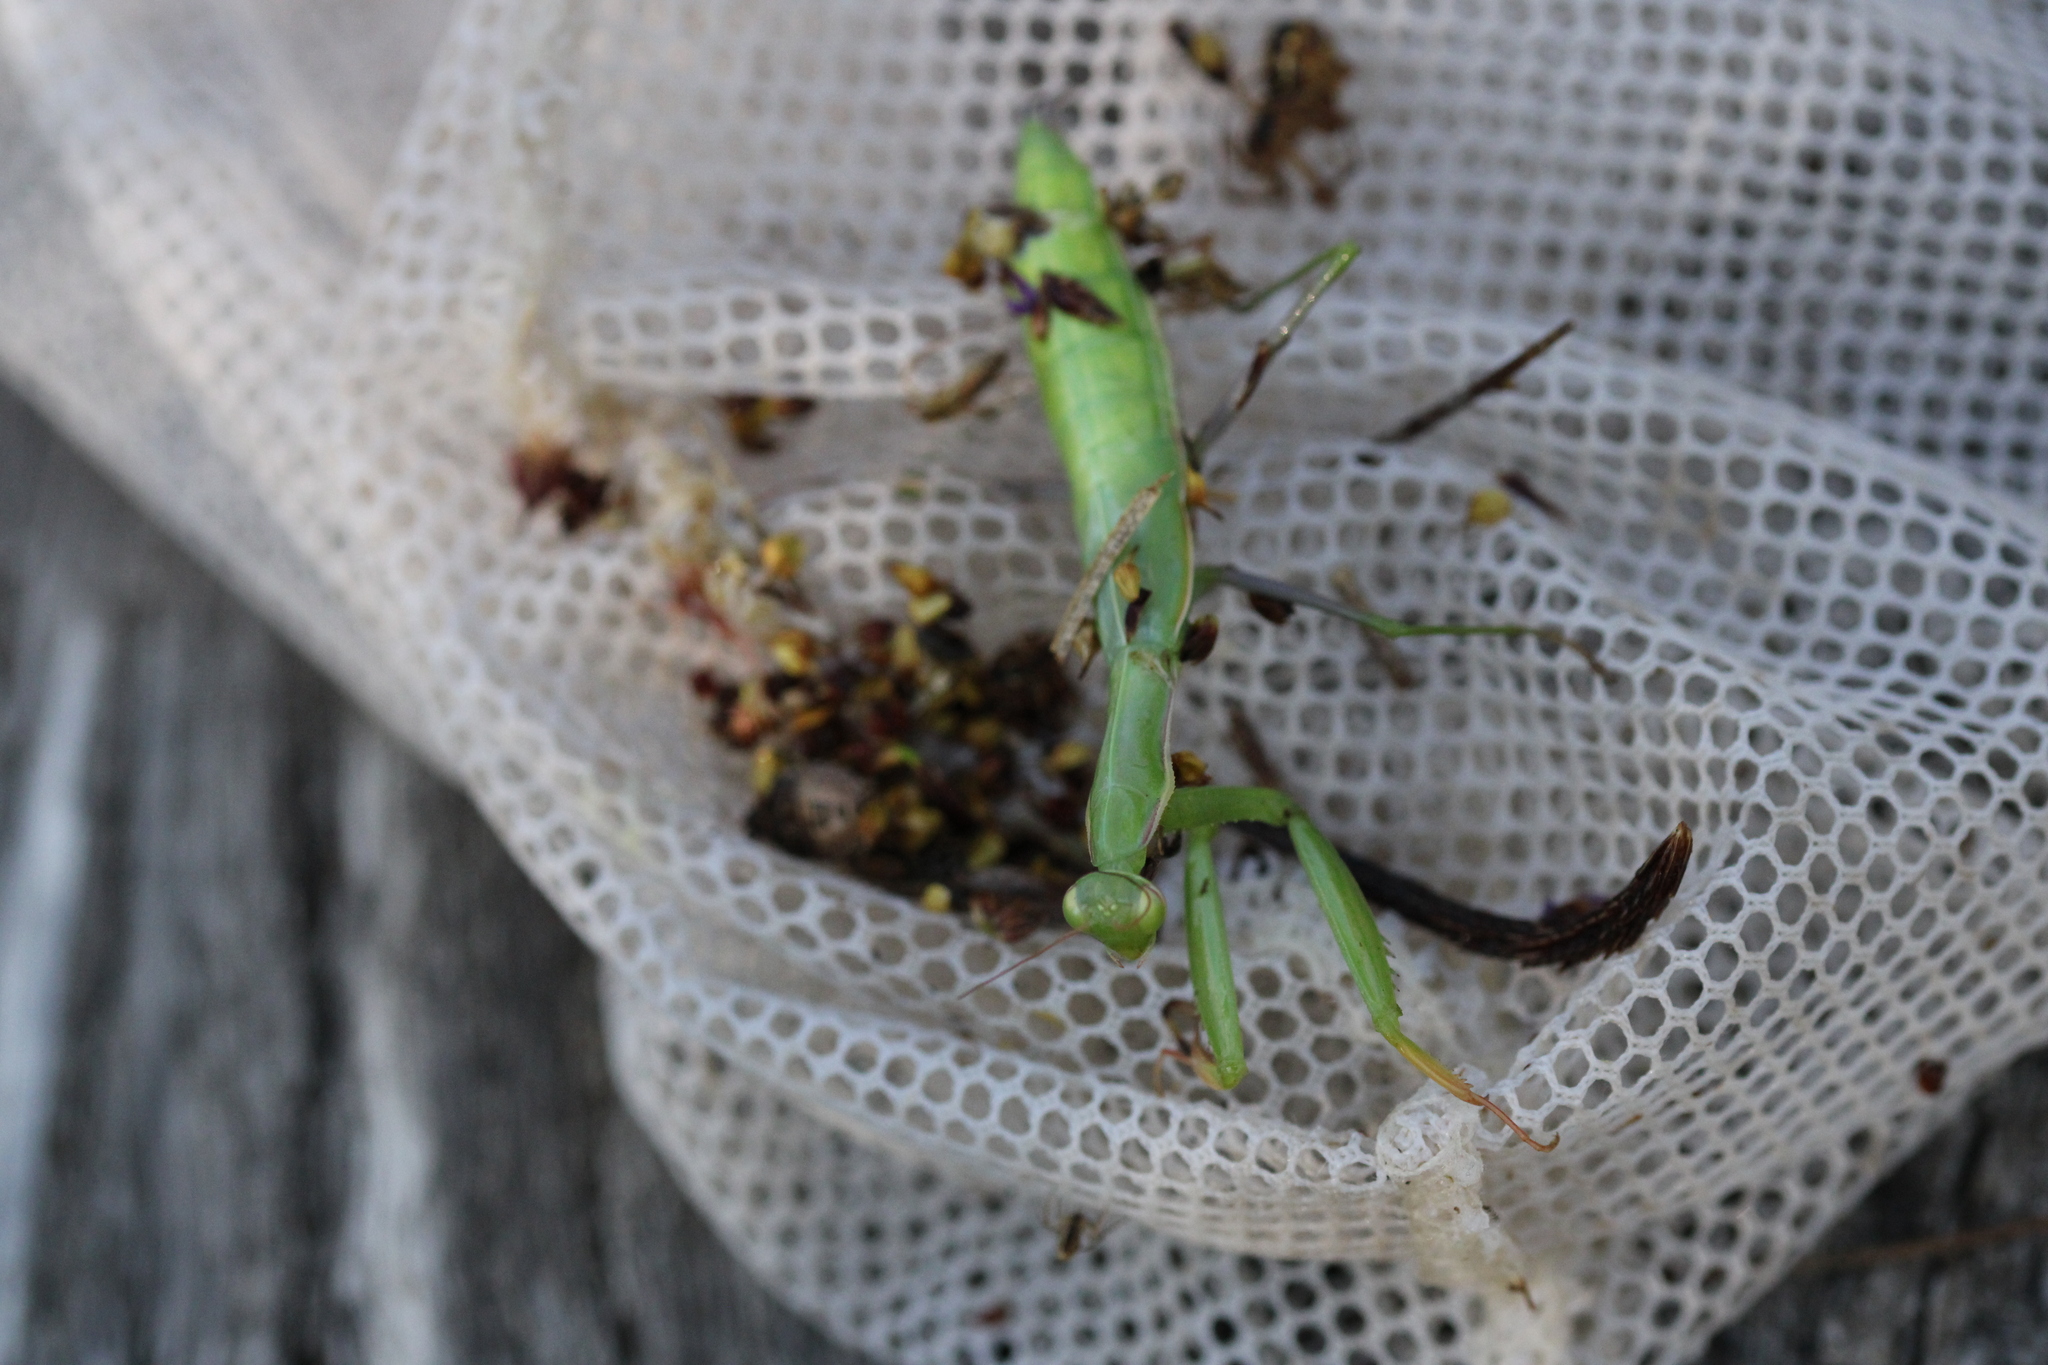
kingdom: Animalia
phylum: Arthropoda
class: Insecta
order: Mantodea
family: Mantidae
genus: Mantis
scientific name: Mantis religiosa
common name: Praying mantis
